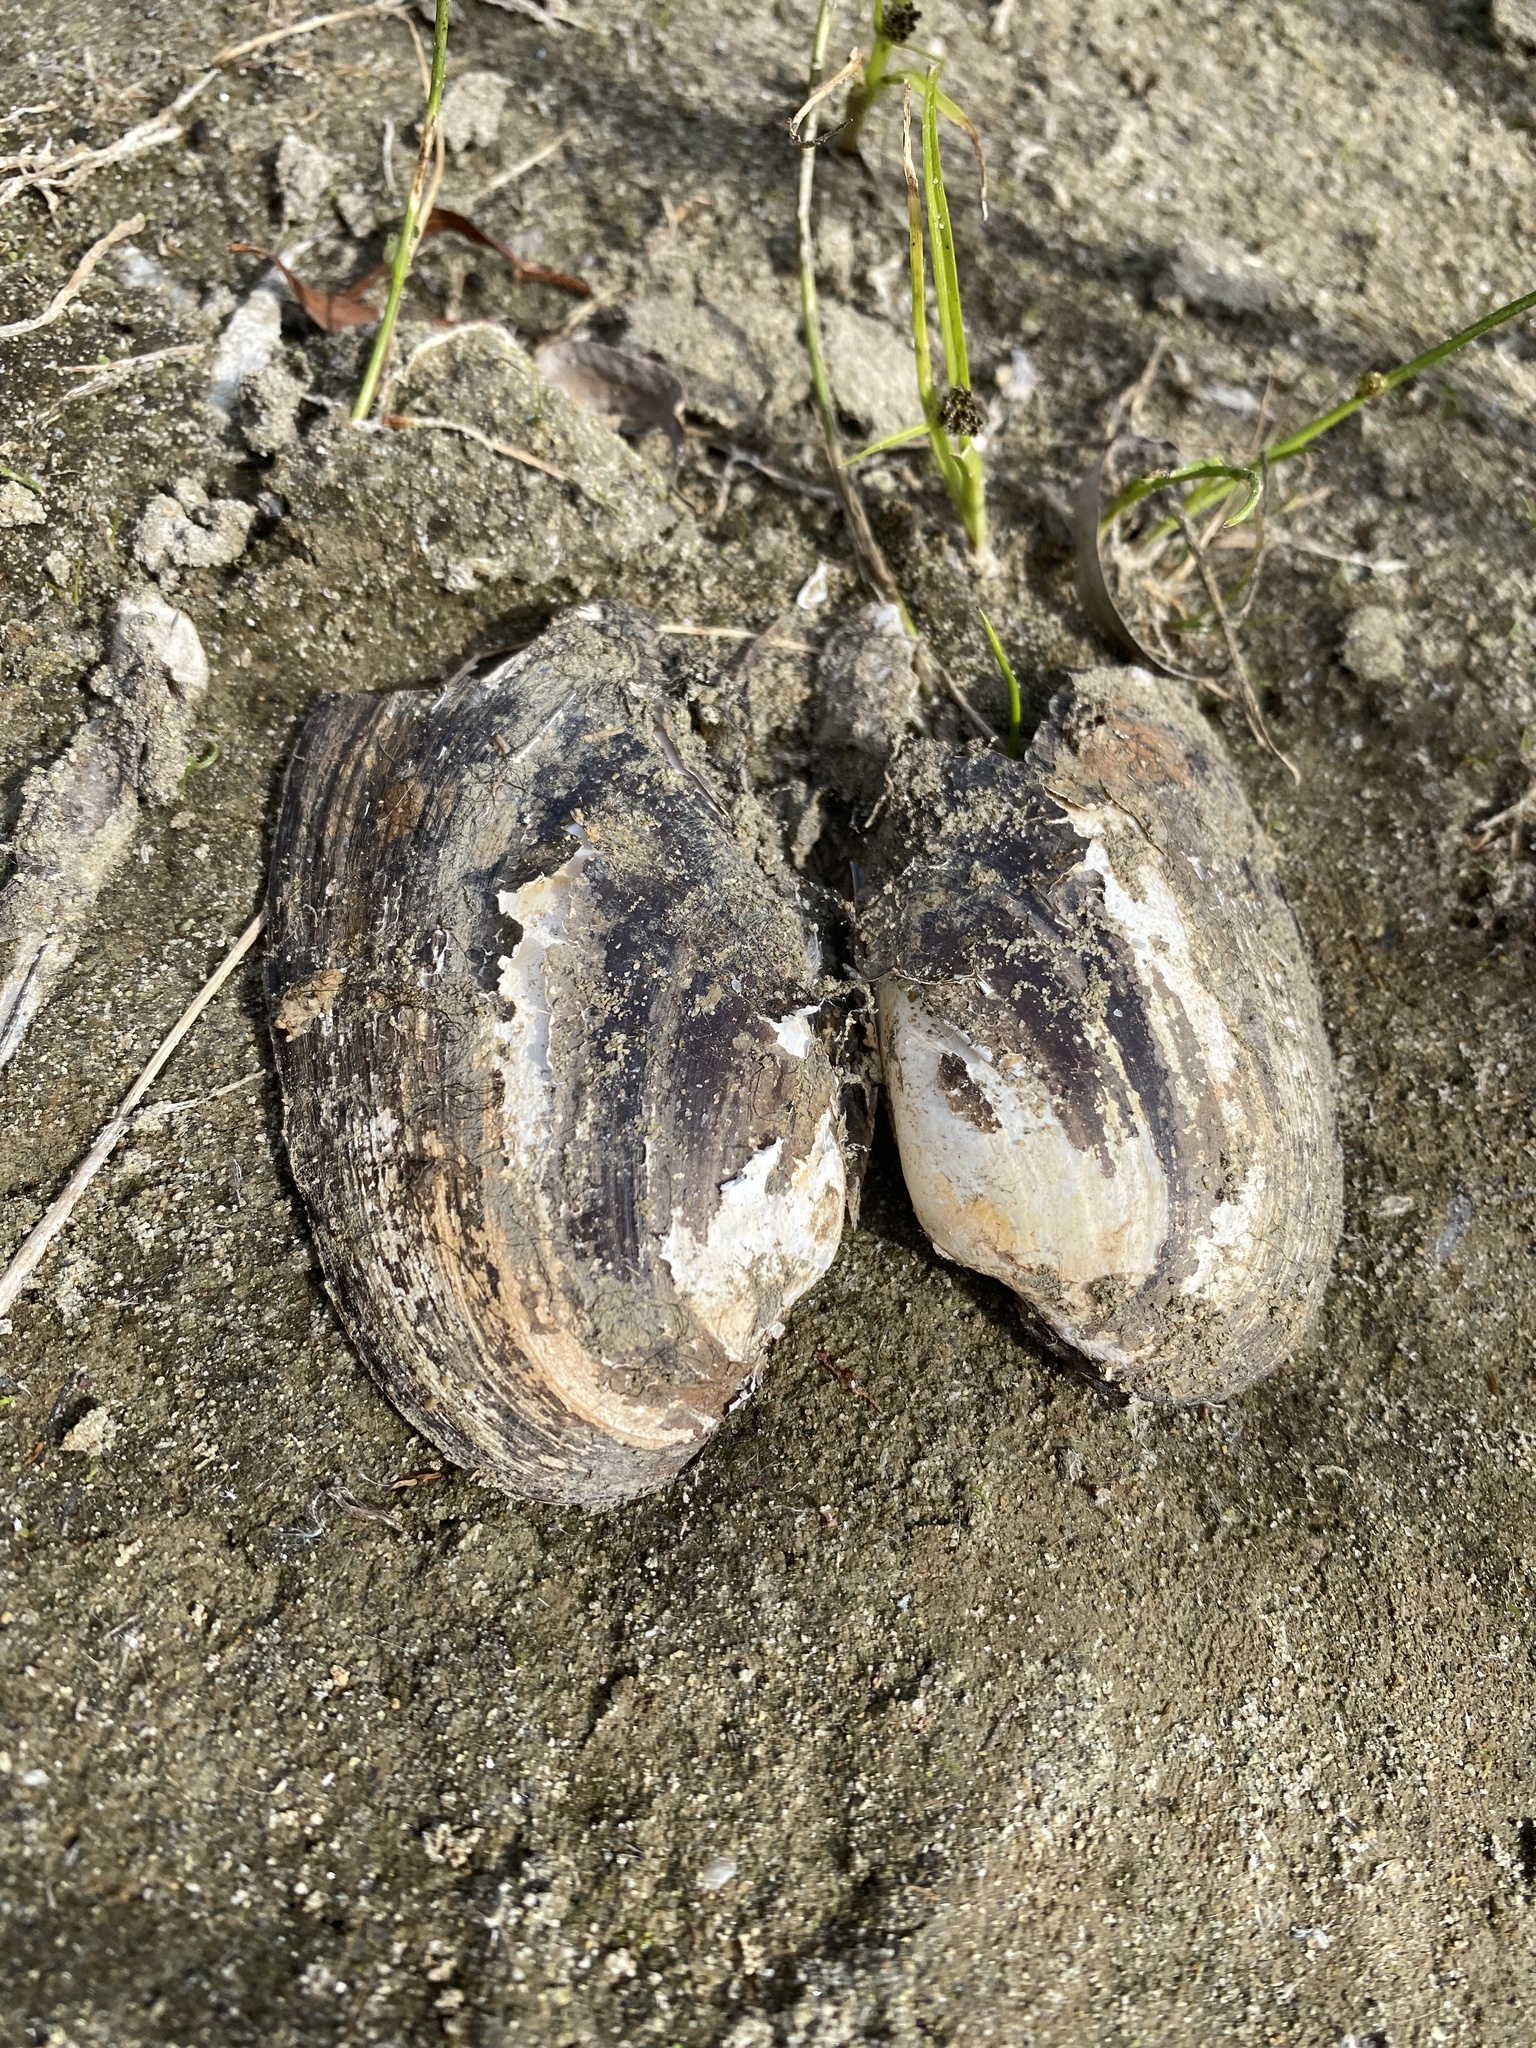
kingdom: Animalia
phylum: Mollusca
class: Bivalvia
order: Unionida
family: Unionidae
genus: Unio
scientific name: Unio
